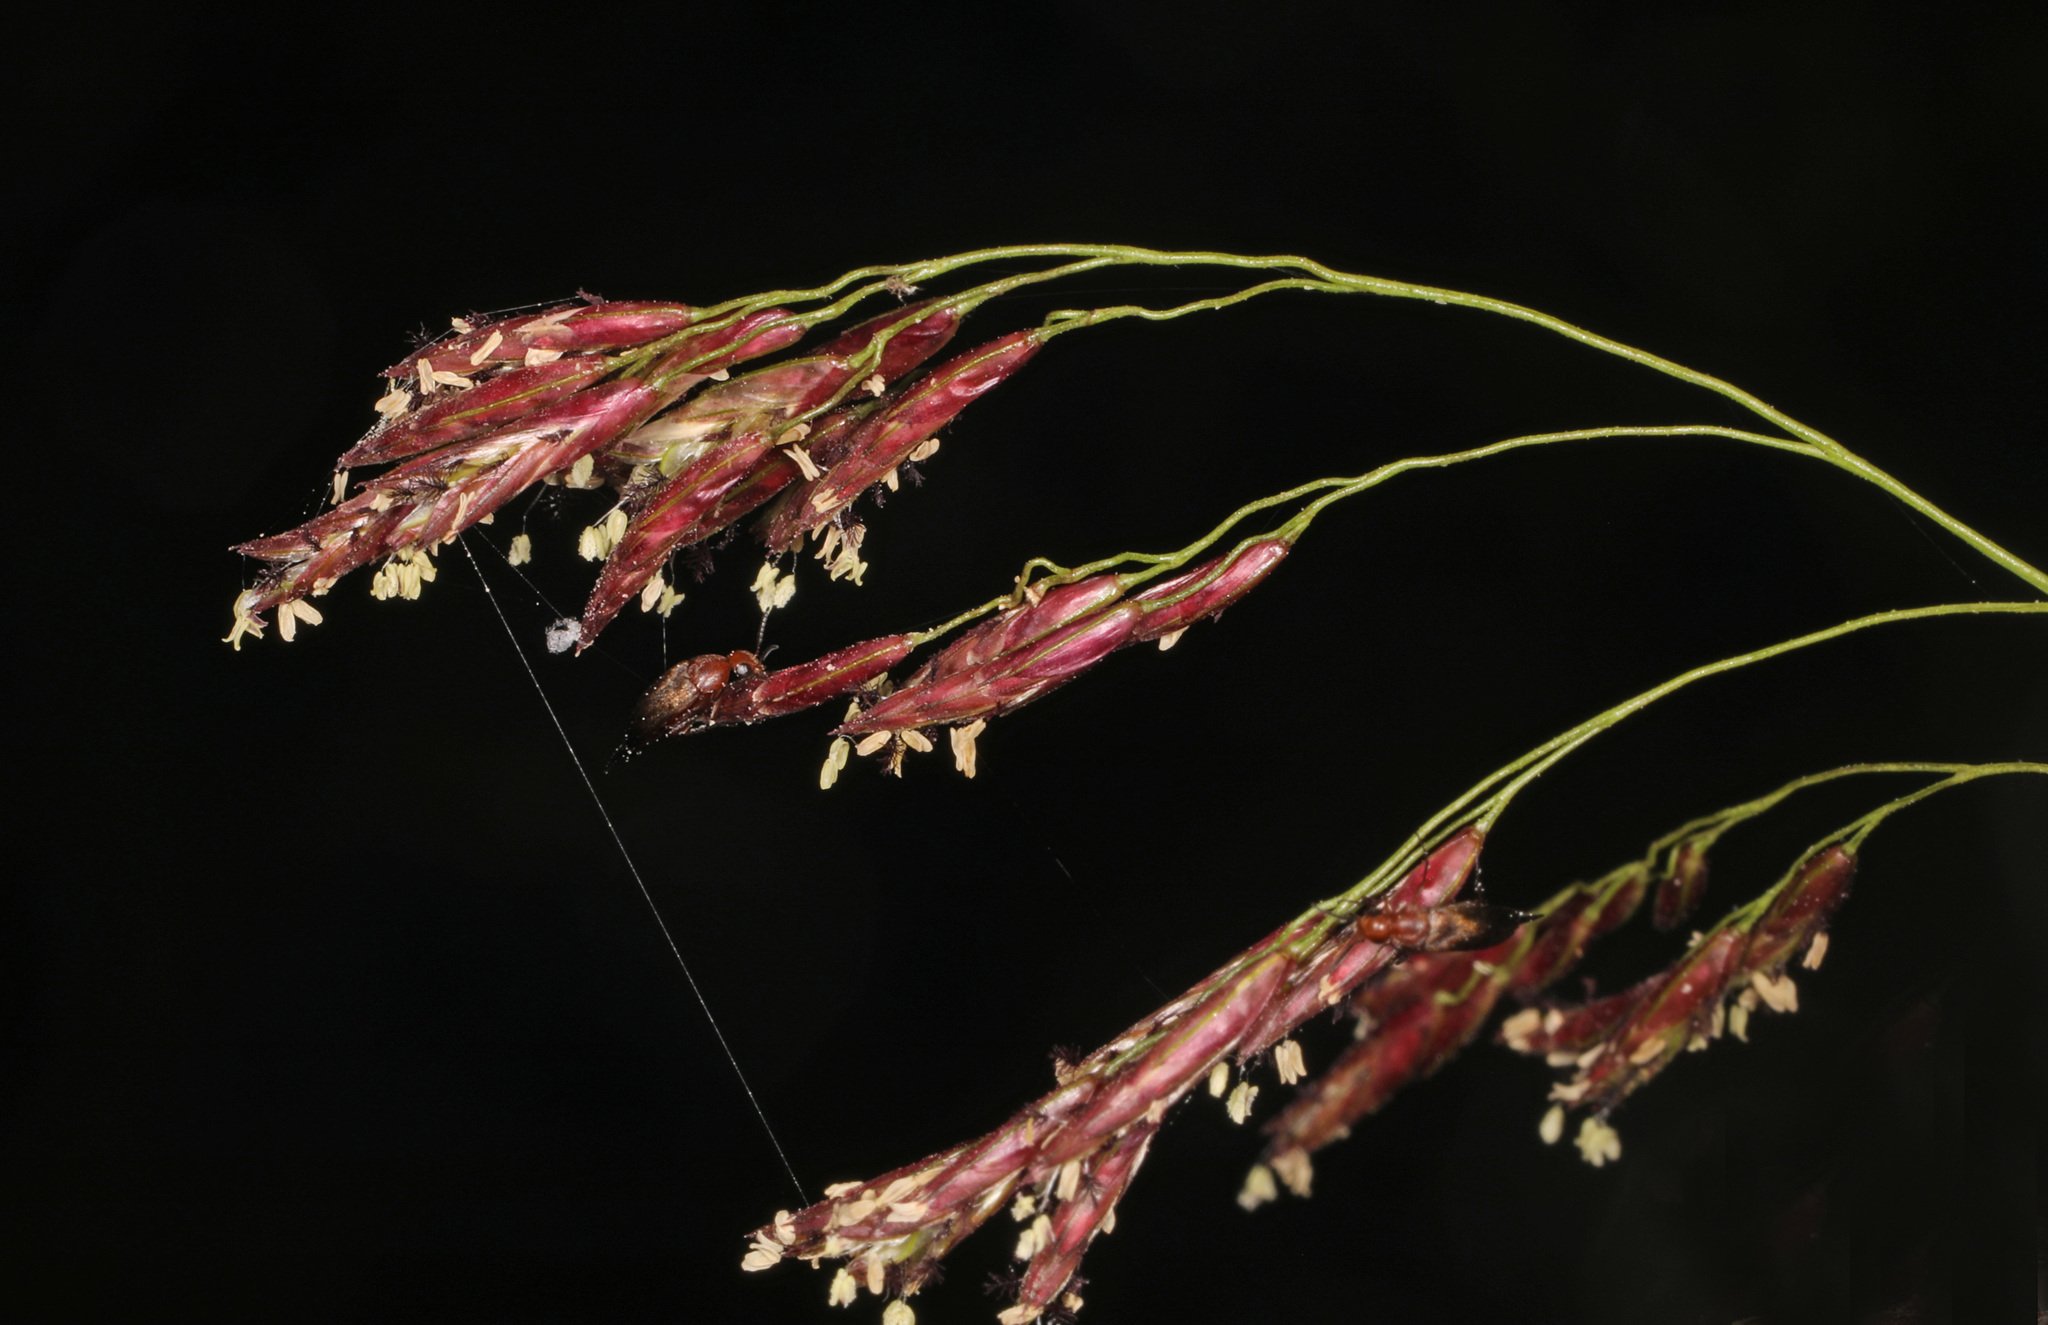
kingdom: Plantae
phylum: Tracheophyta
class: Liliopsida
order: Poales
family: Poaceae
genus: Tridens
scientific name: Tridens flavus
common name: Purpletop
